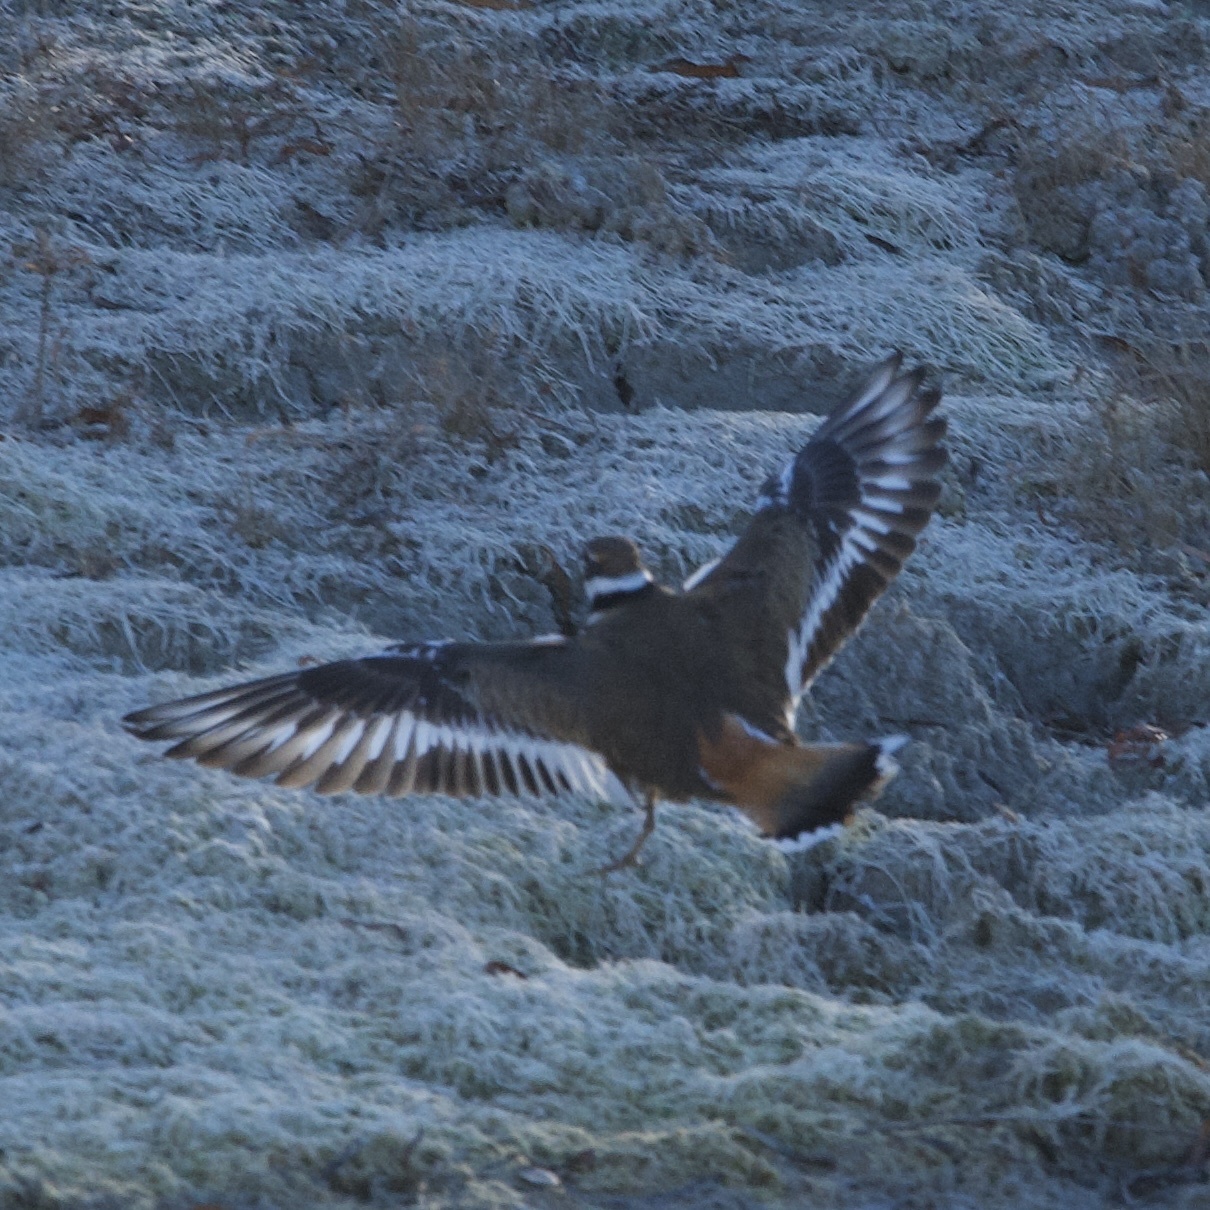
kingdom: Animalia
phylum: Chordata
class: Aves
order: Charadriiformes
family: Charadriidae
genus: Charadrius
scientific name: Charadrius vociferus
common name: Killdeer
